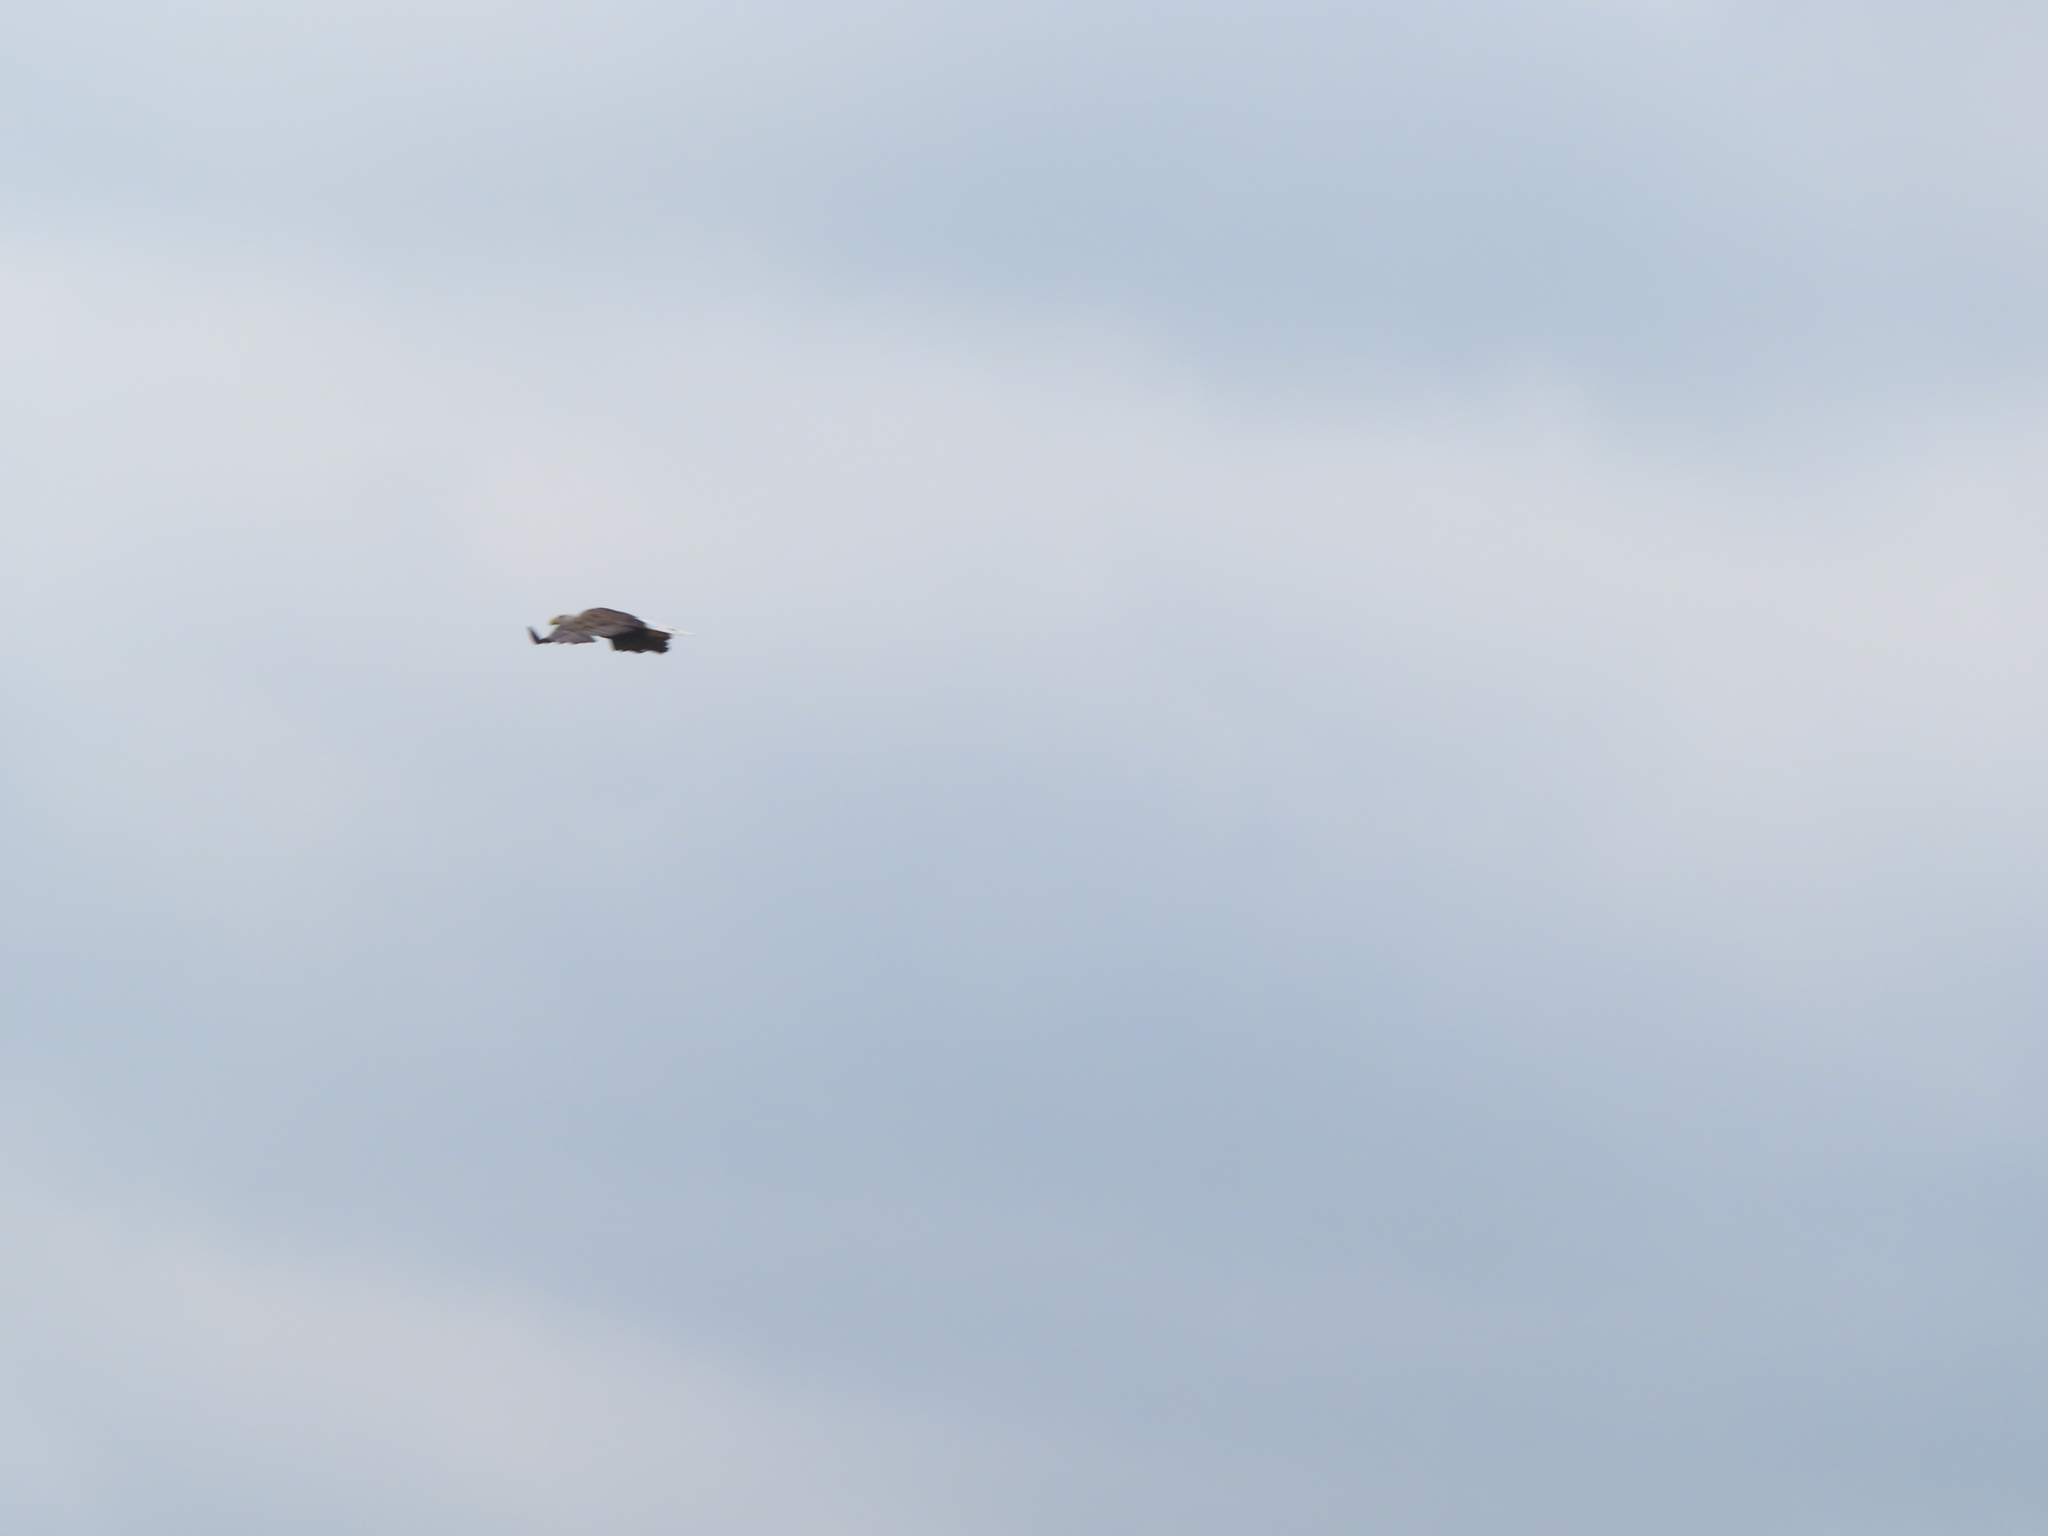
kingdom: Animalia
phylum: Chordata
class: Aves
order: Accipitriformes
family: Accipitridae
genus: Haliaeetus
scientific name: Haliaeetus leucocephalus
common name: Bald eagle
